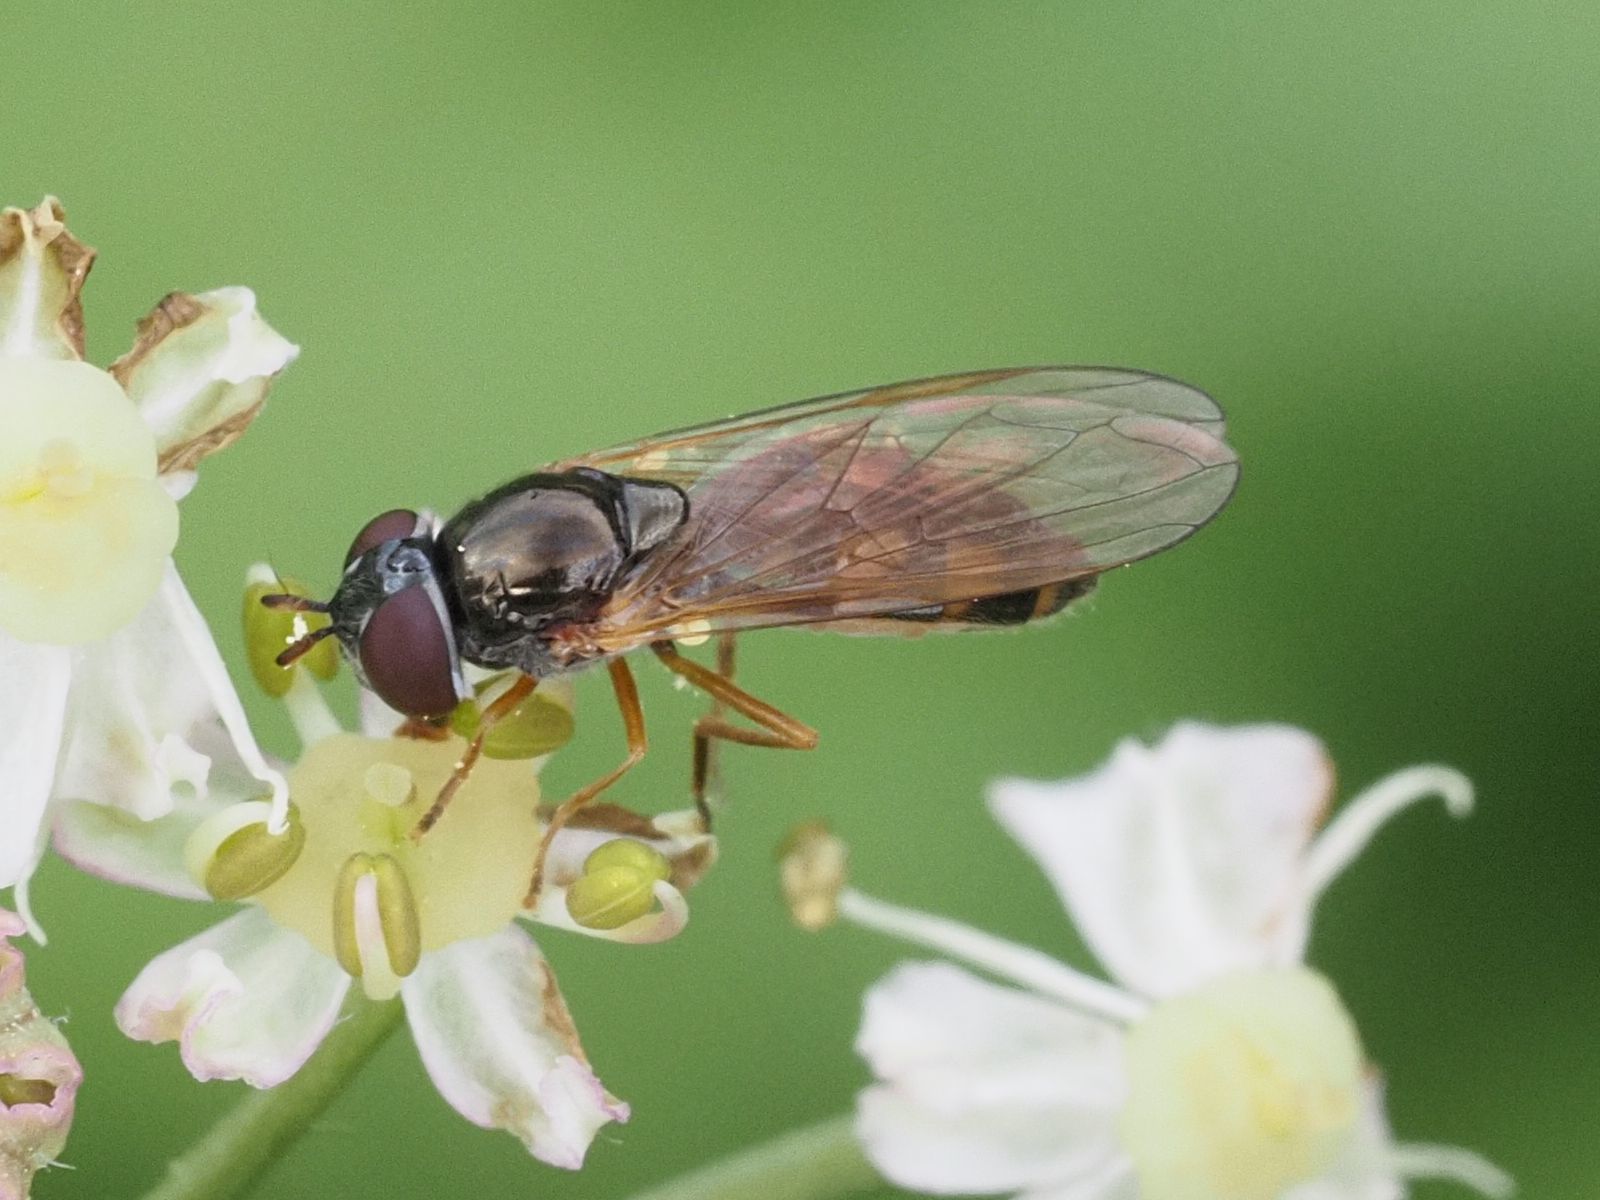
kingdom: Animalia
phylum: Arthropoda
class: Insecta
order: Diptera
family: Syrphidae
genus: Melanostoma
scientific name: Melanostoma mellina
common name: Hover fly
